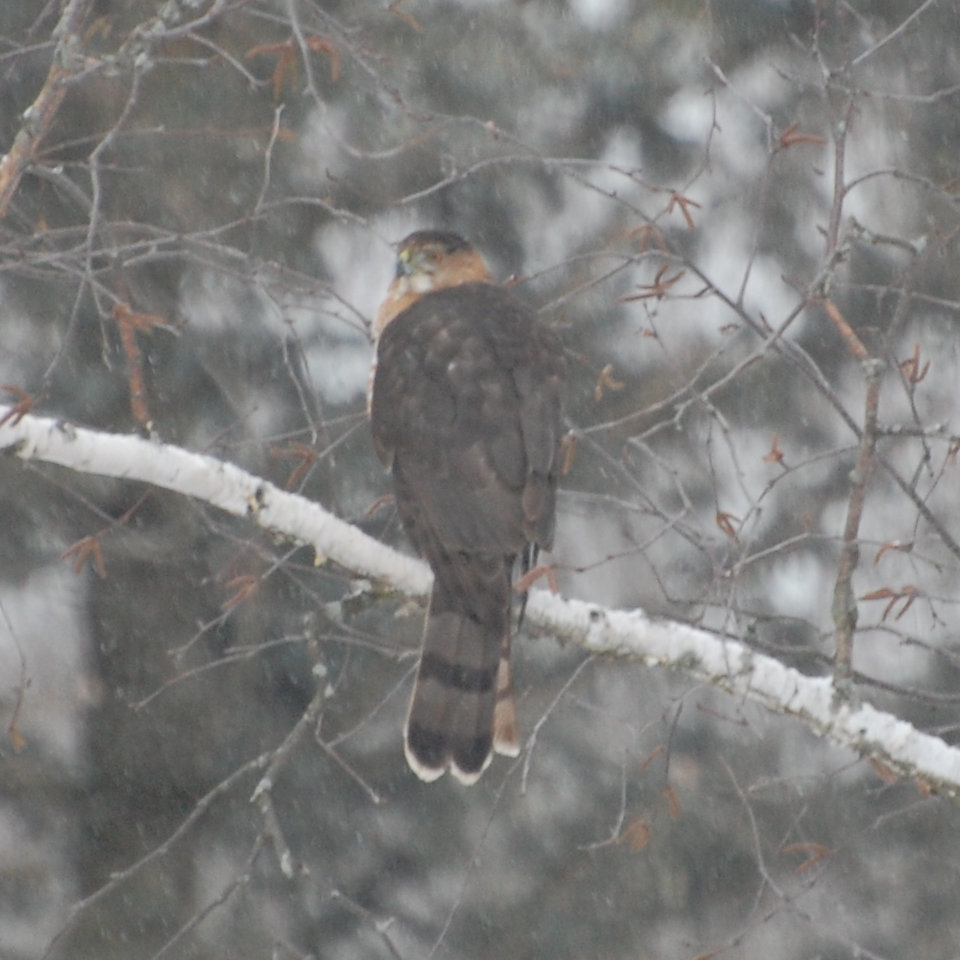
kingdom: Animalia
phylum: Chordata
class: Aves
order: Accipitriformes
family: Accipitridae
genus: Accipiter
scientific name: Accipiter cooperii
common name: Cooper's hawk
